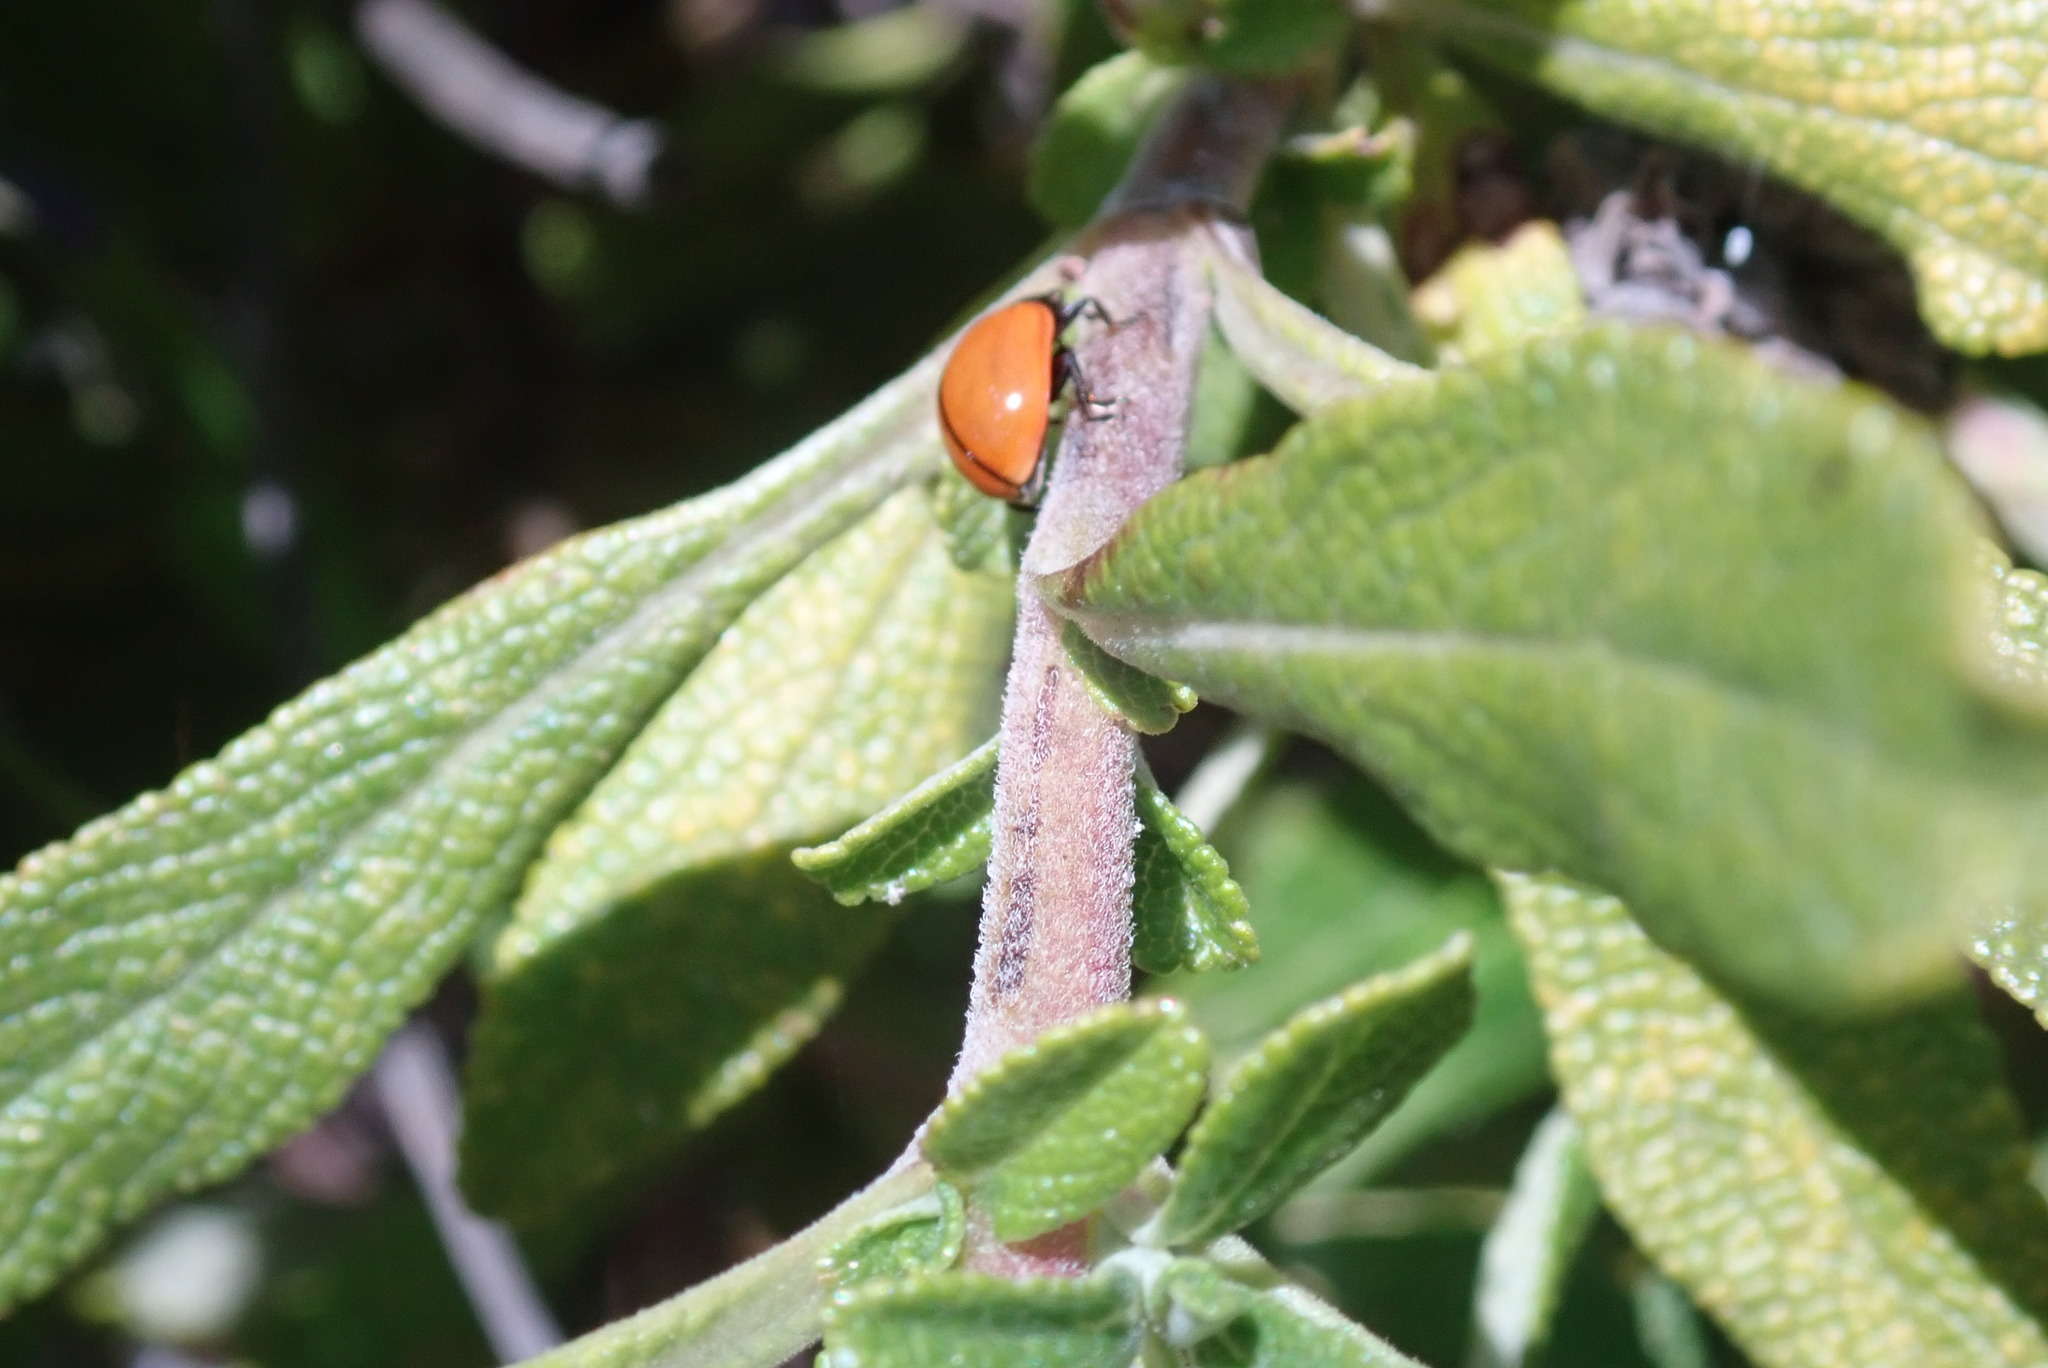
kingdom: Animalia
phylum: Arthropoda
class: Insecta
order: Coleoptera
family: Coccinellidae
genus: Coccinella
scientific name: Coccinella californica
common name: Lady beetle
